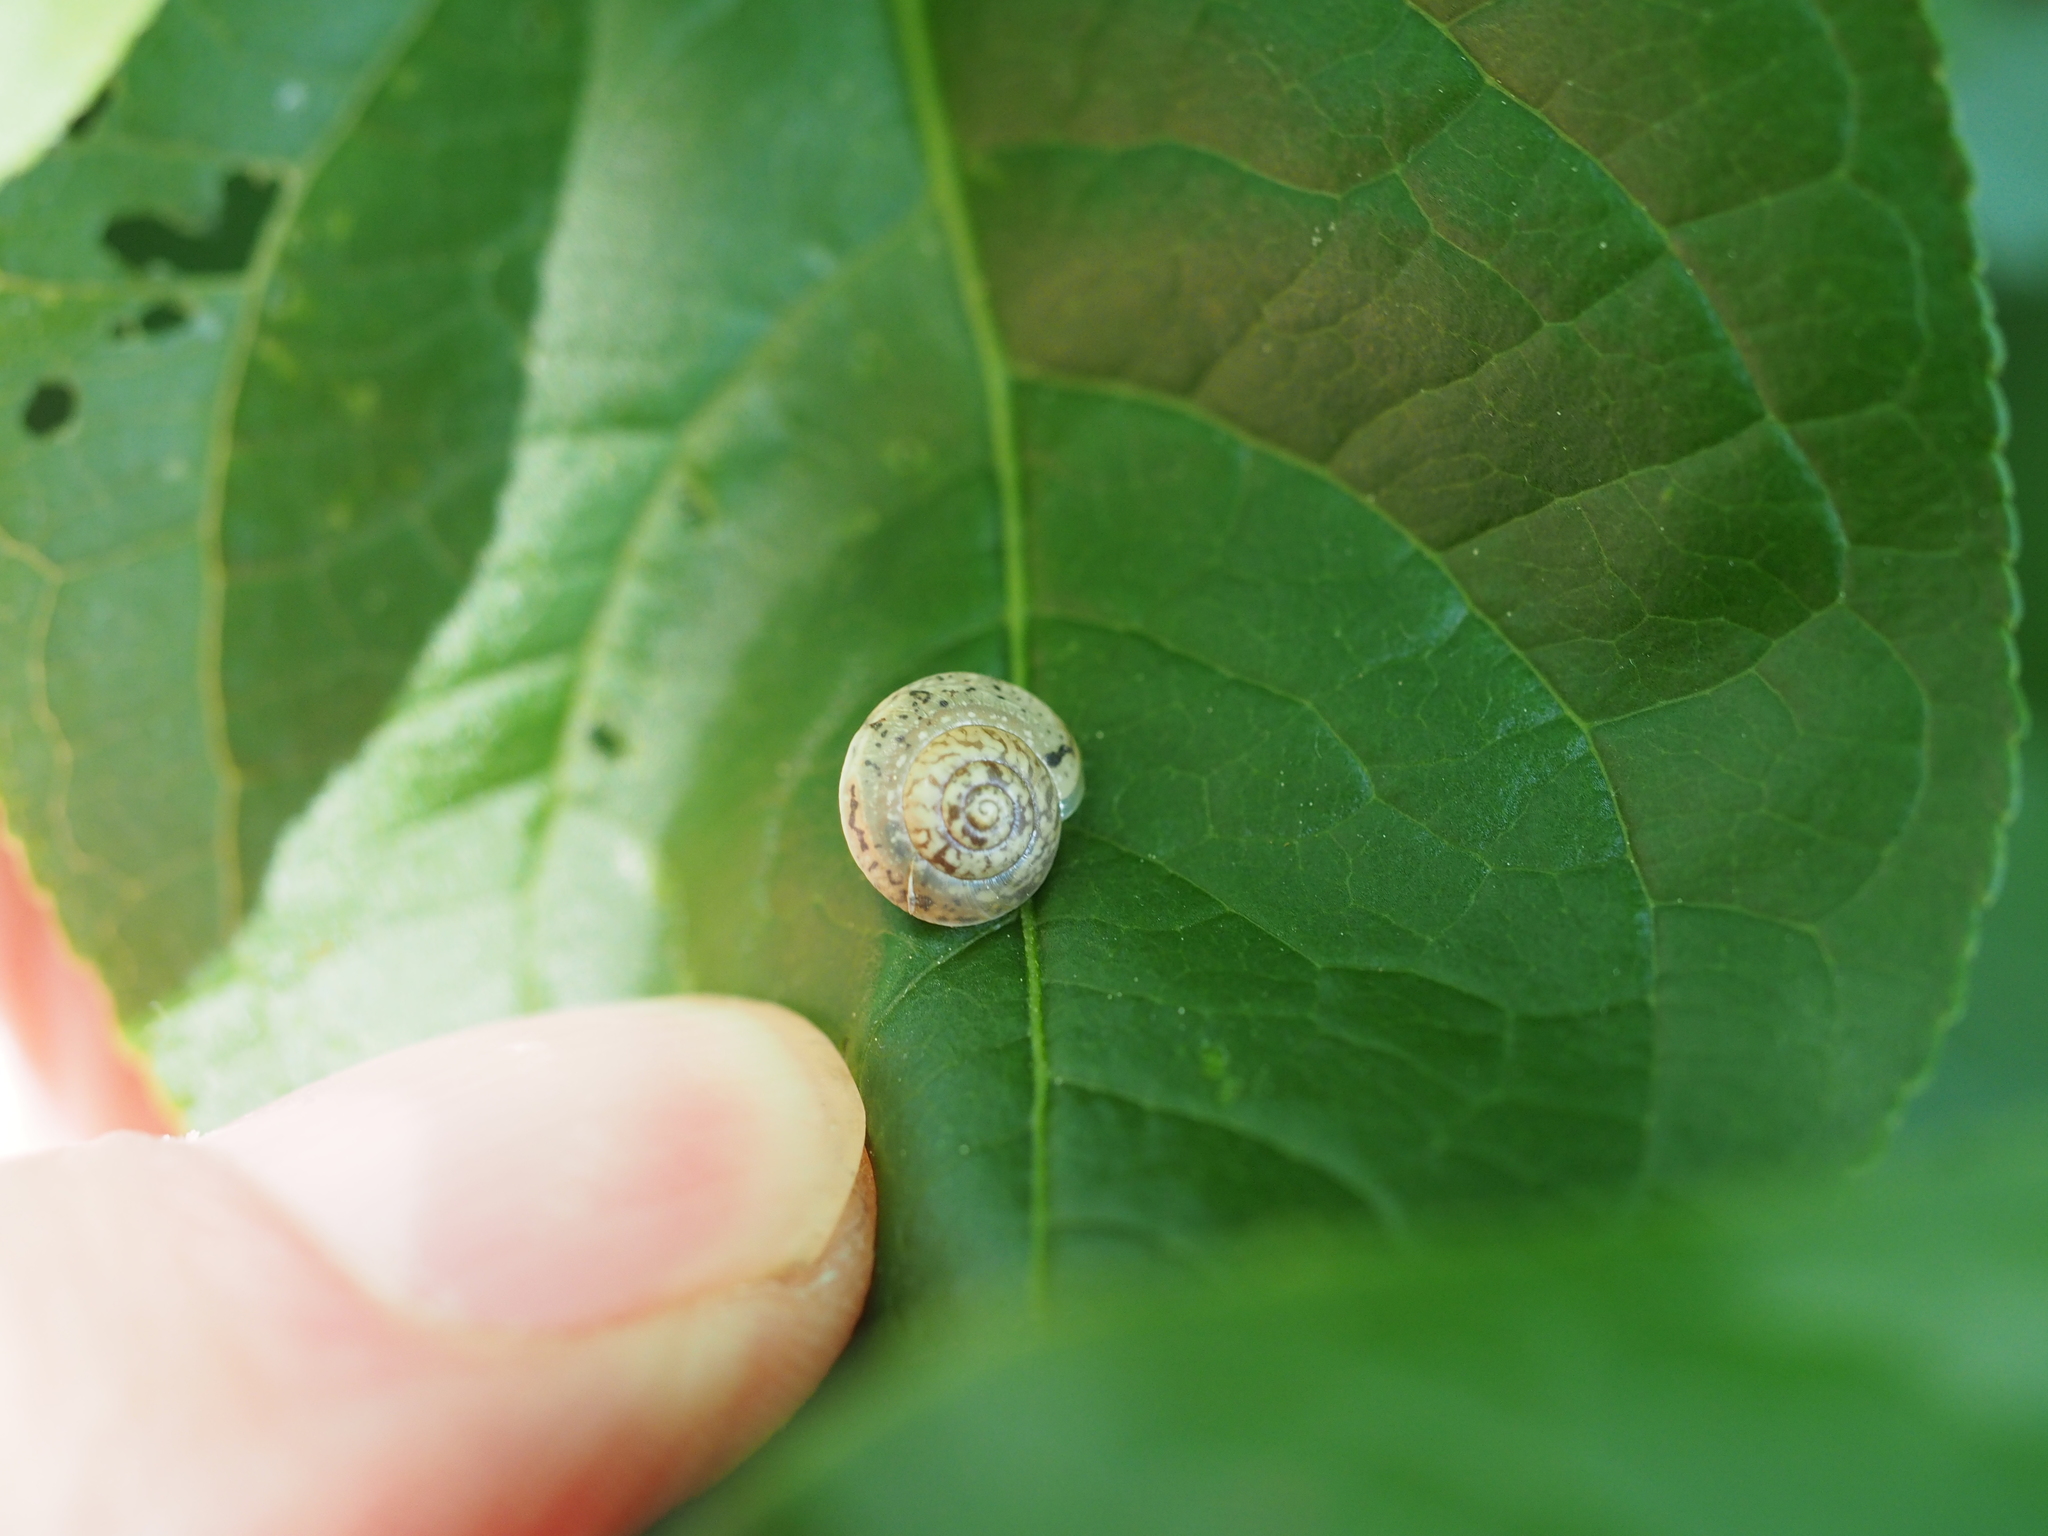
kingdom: Animalia
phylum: Mollusca
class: Gastropoda
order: Stylommatophora
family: Hygromiidae
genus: Hygromia
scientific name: Hygromia cinctella
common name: Girdled snail
